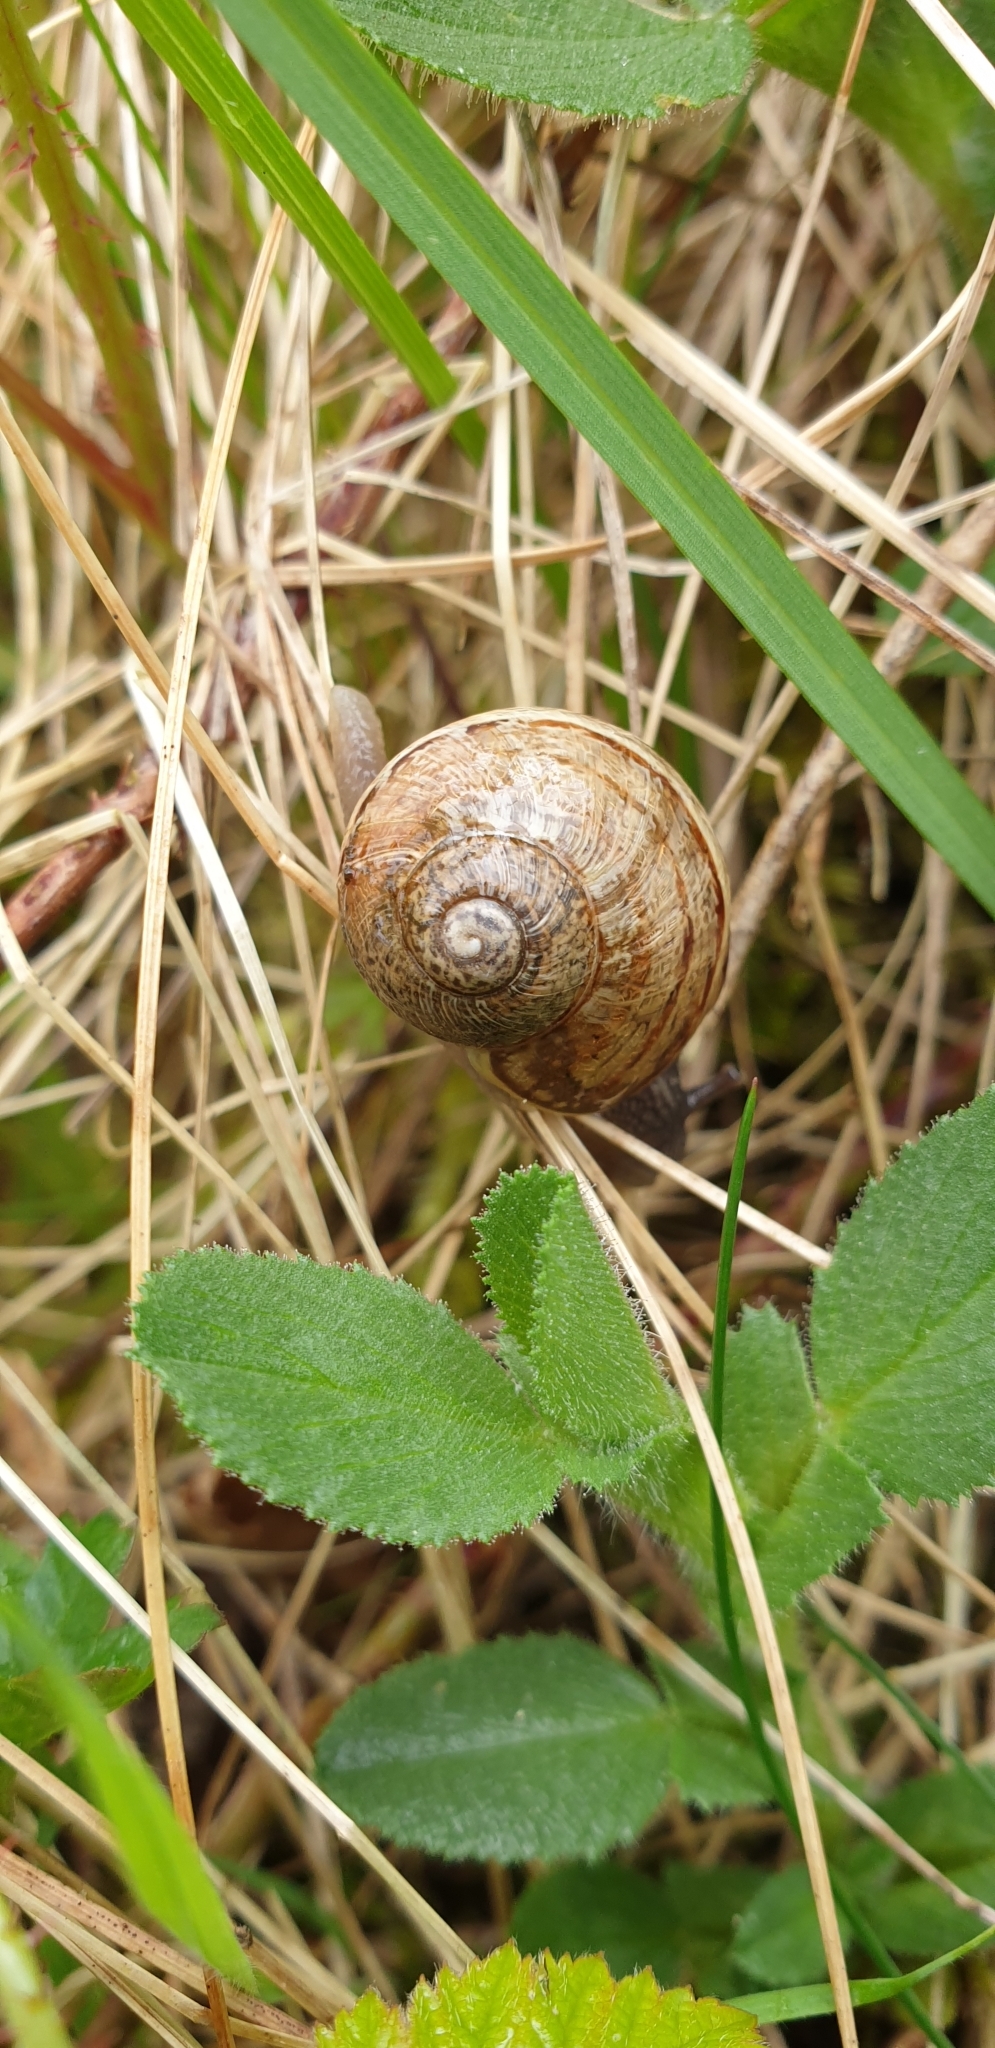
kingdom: Animalia
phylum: Mollusca
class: Gastropoda
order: Stylommatophora
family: Helicidae
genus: Cornu
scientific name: Cornu aspersum
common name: Brown garden snail
